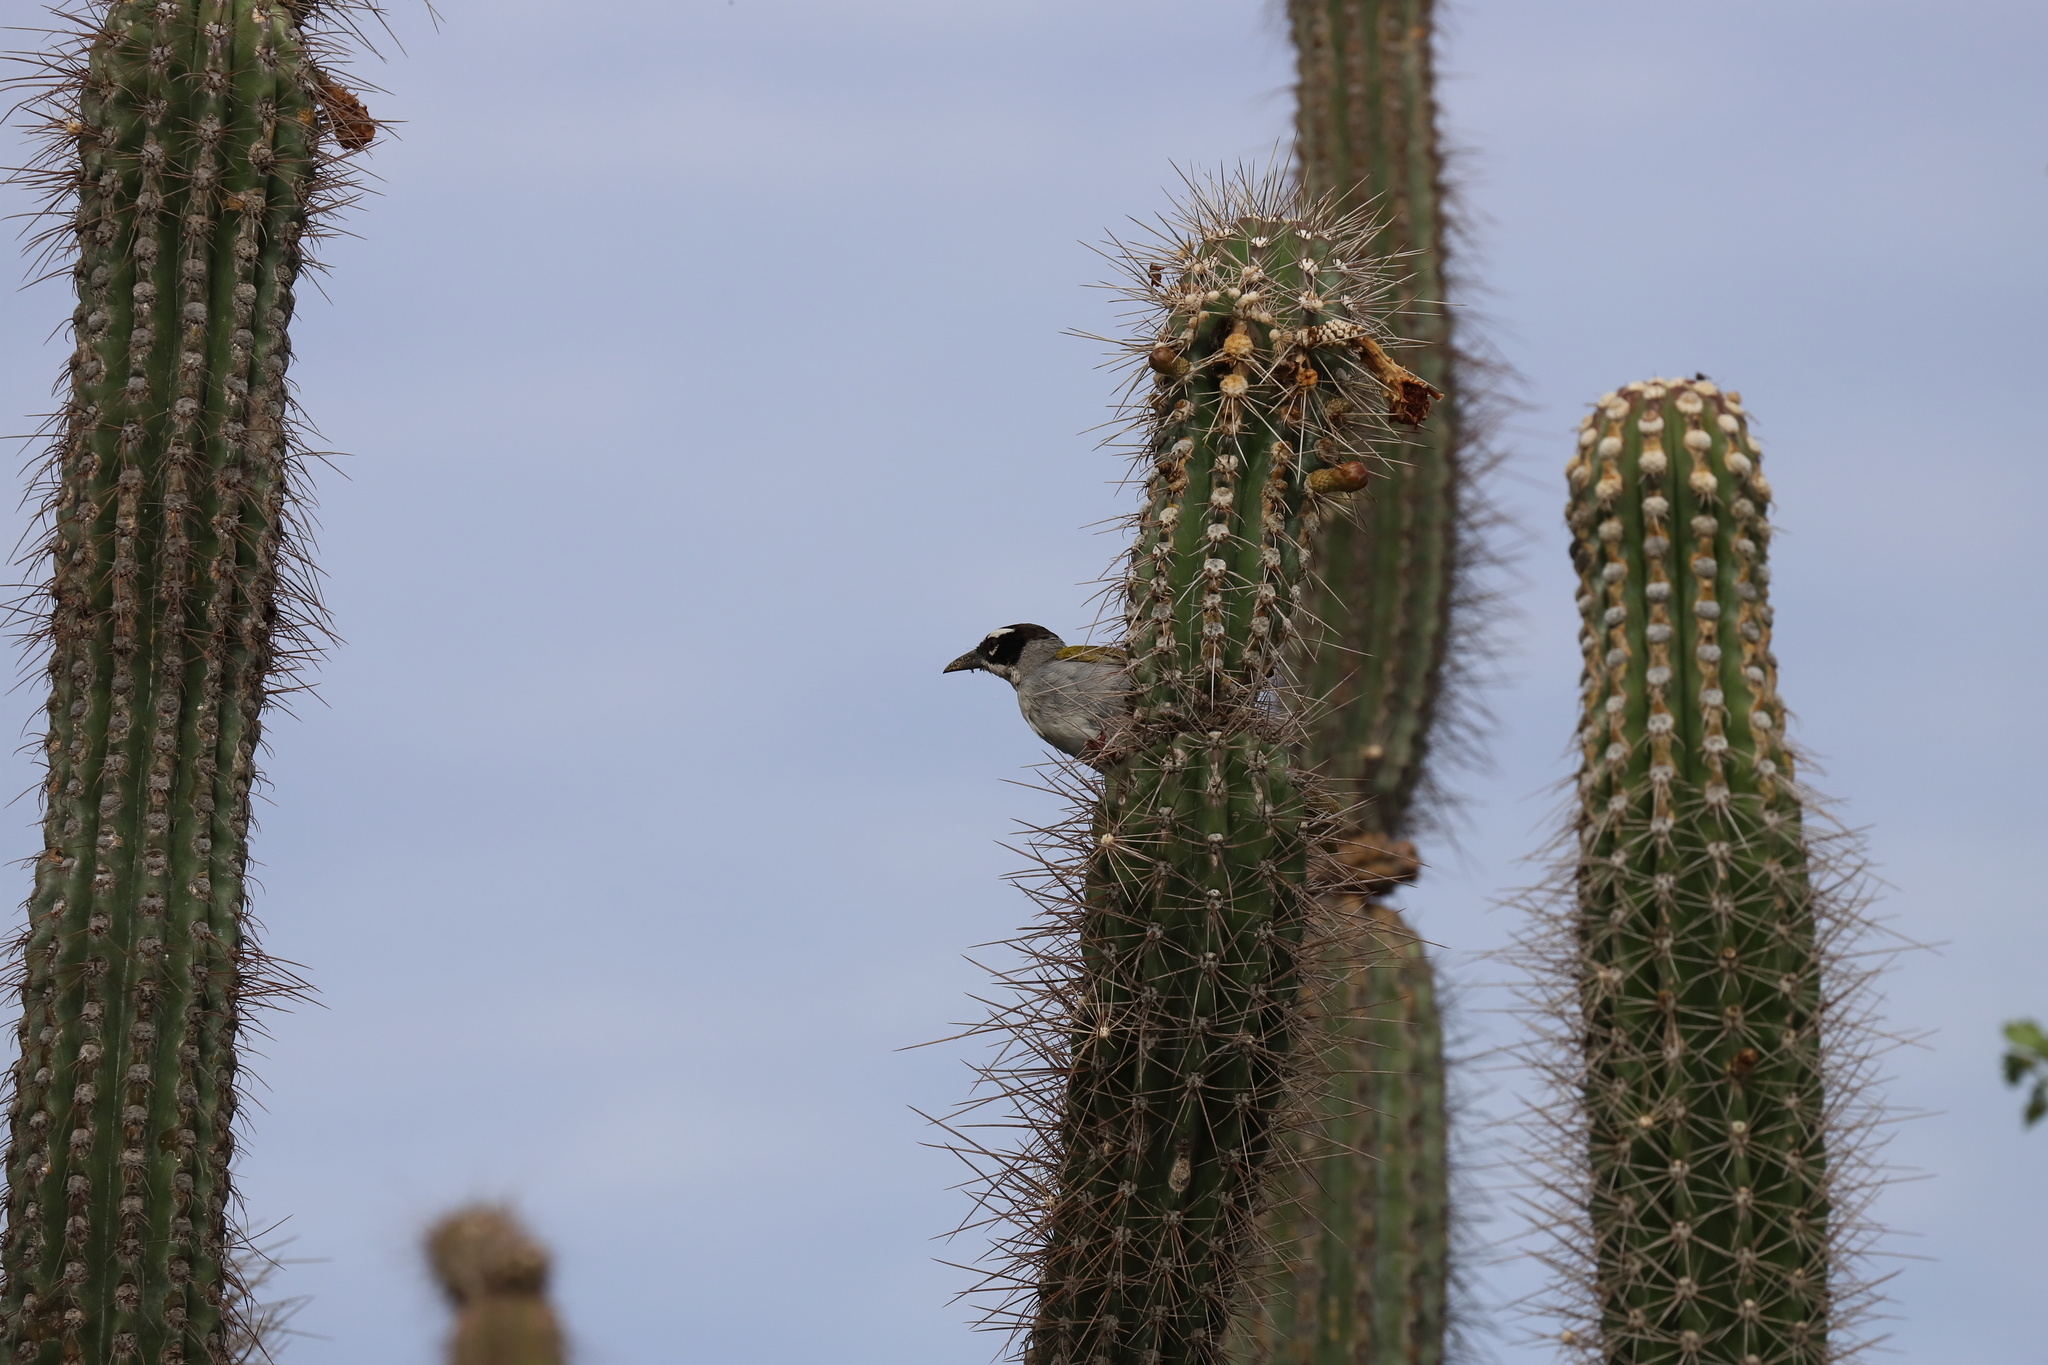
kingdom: Plantae
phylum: Tracheophyta
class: Magnoliopsida
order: Caryophyllales
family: Cactaceae
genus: Stenocereus
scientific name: Stenocereus heptagonus
